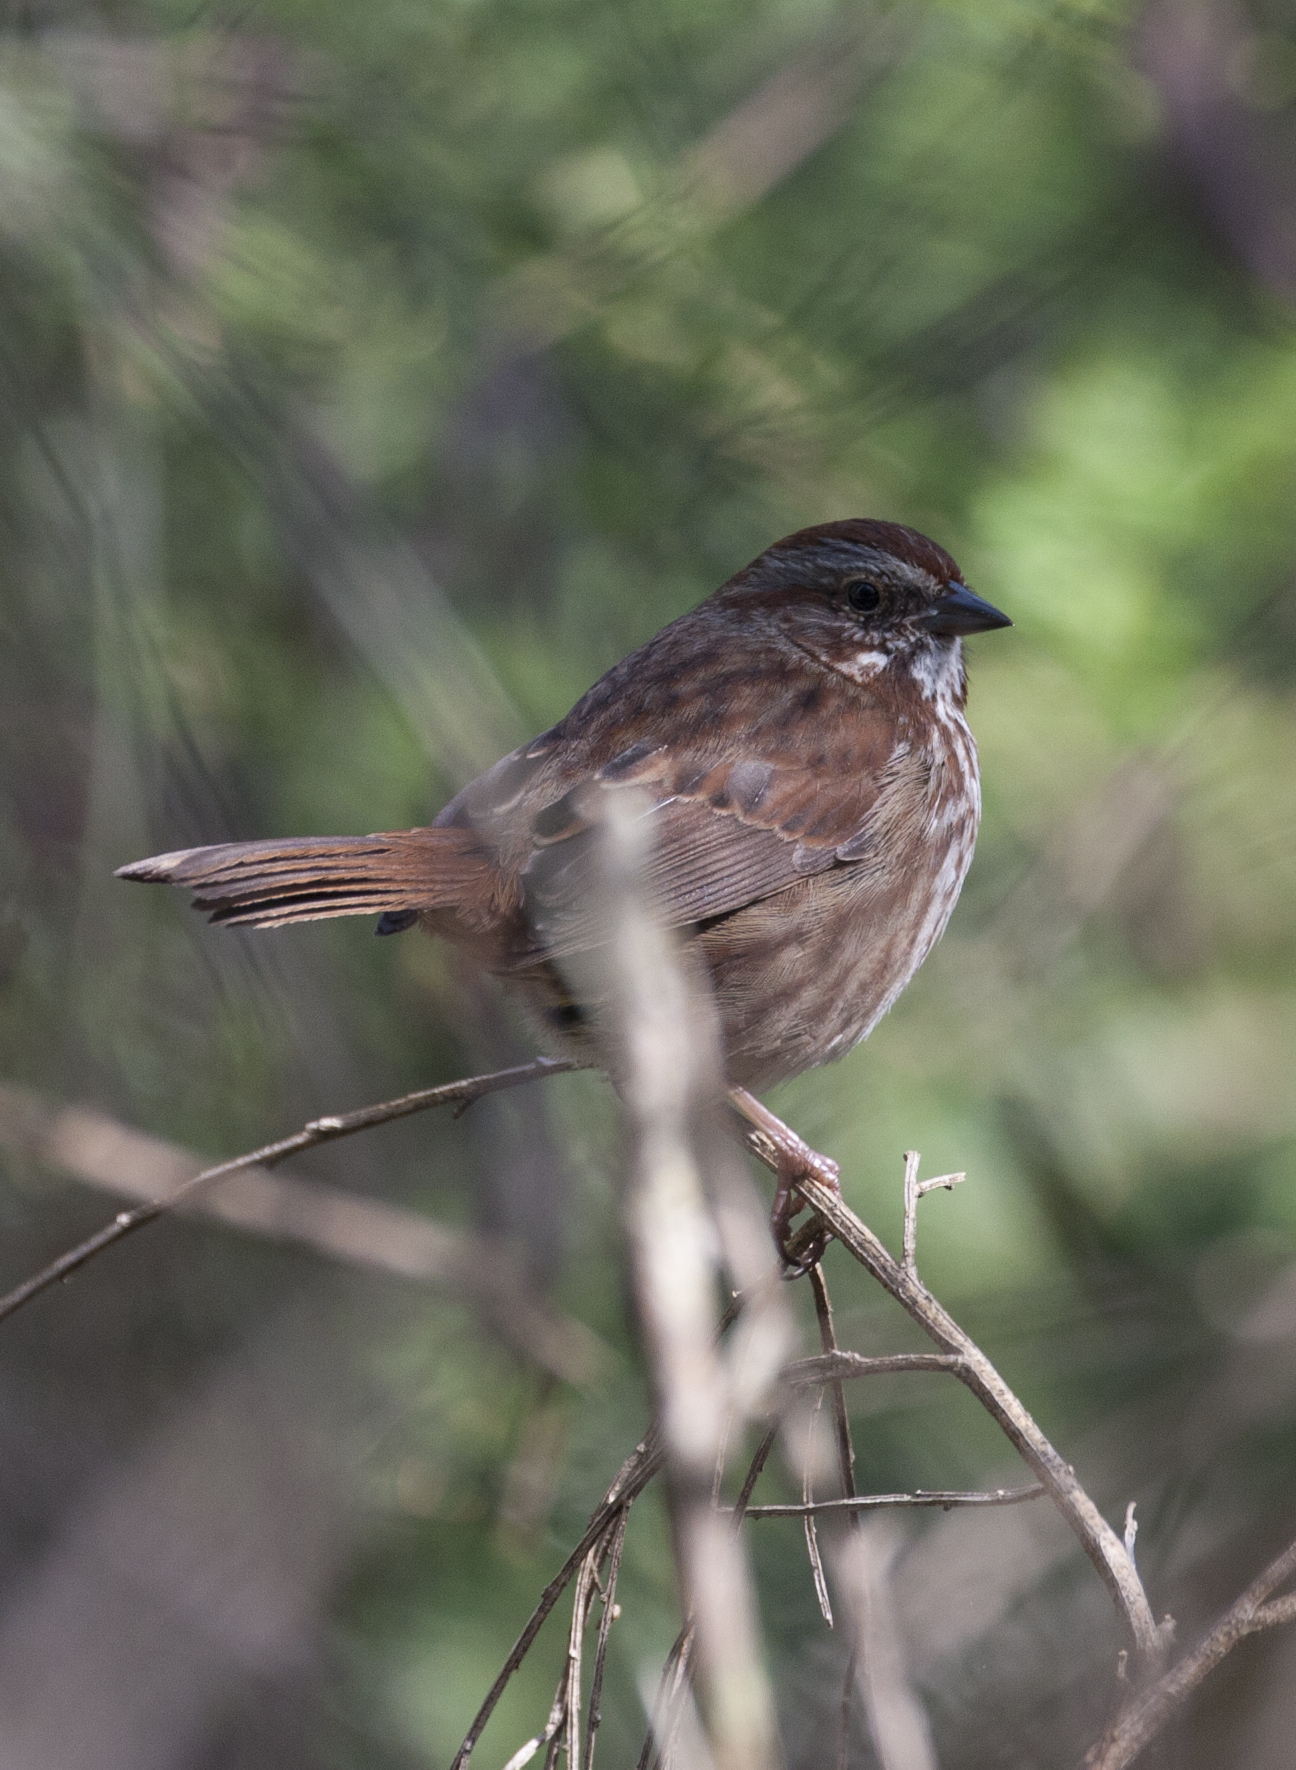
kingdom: Animalia
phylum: Chordata
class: Aves
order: Passeriformes
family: Passerellidae
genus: Melospiza
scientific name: Melospiza melodia
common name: Song sparrow
